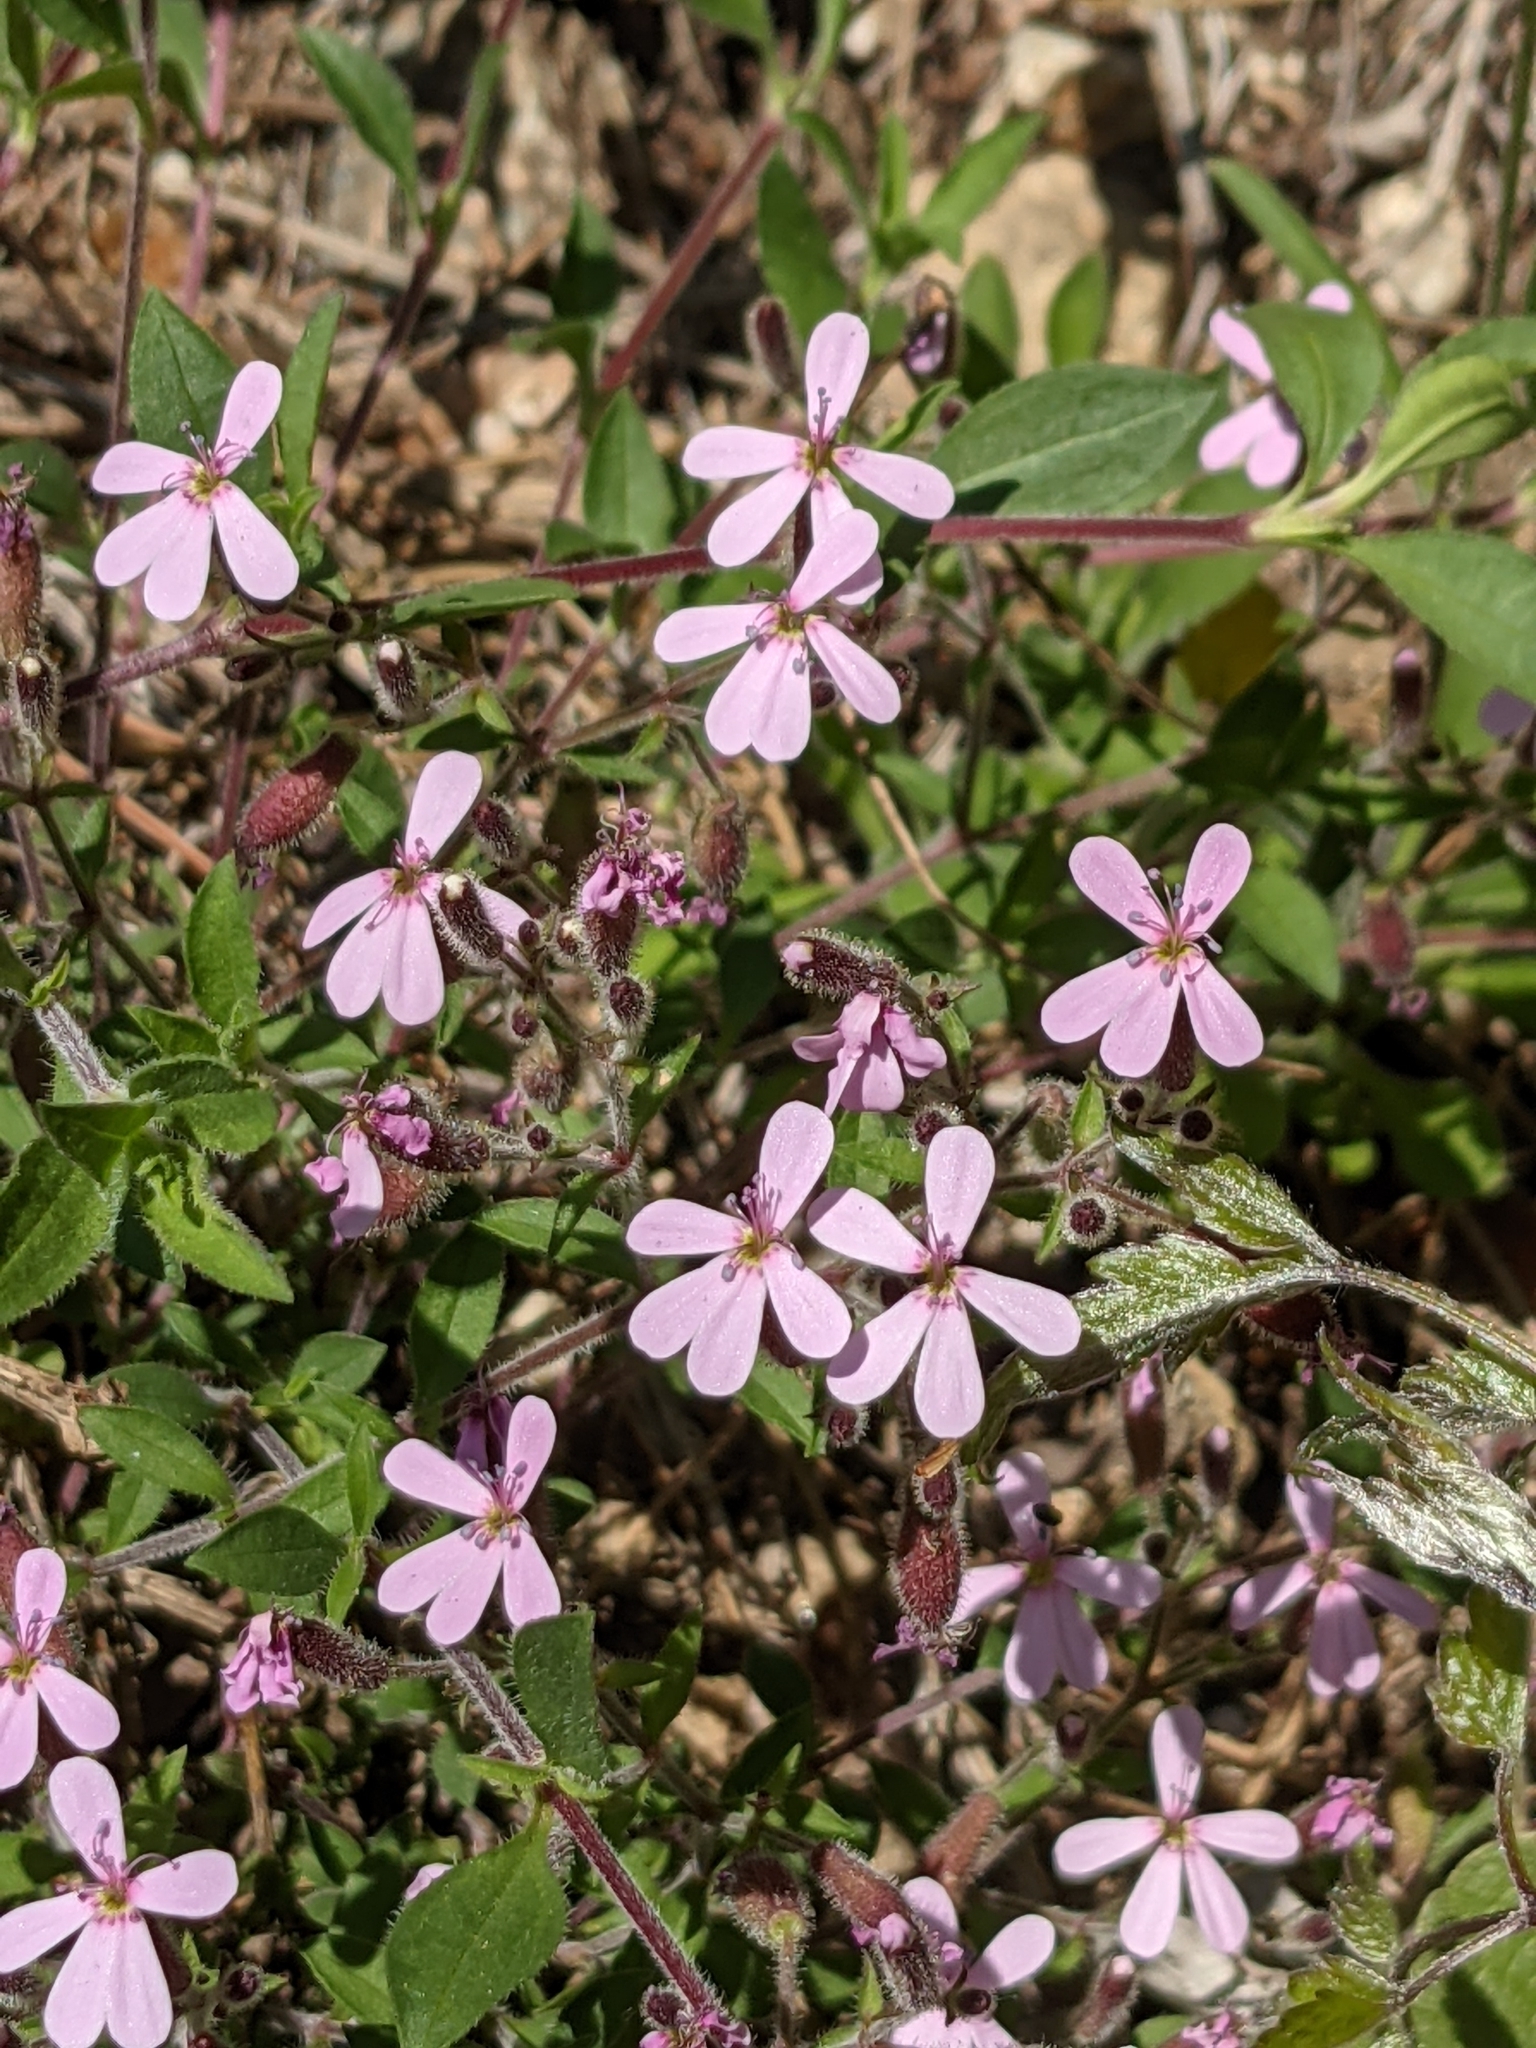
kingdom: Plantae
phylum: Tracheophyta
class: Magnoliopsida
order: Caryophyllales
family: Caryophyllaceae
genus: Saponaria
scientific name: Saponaria ocymoides
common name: Rock soapwort
